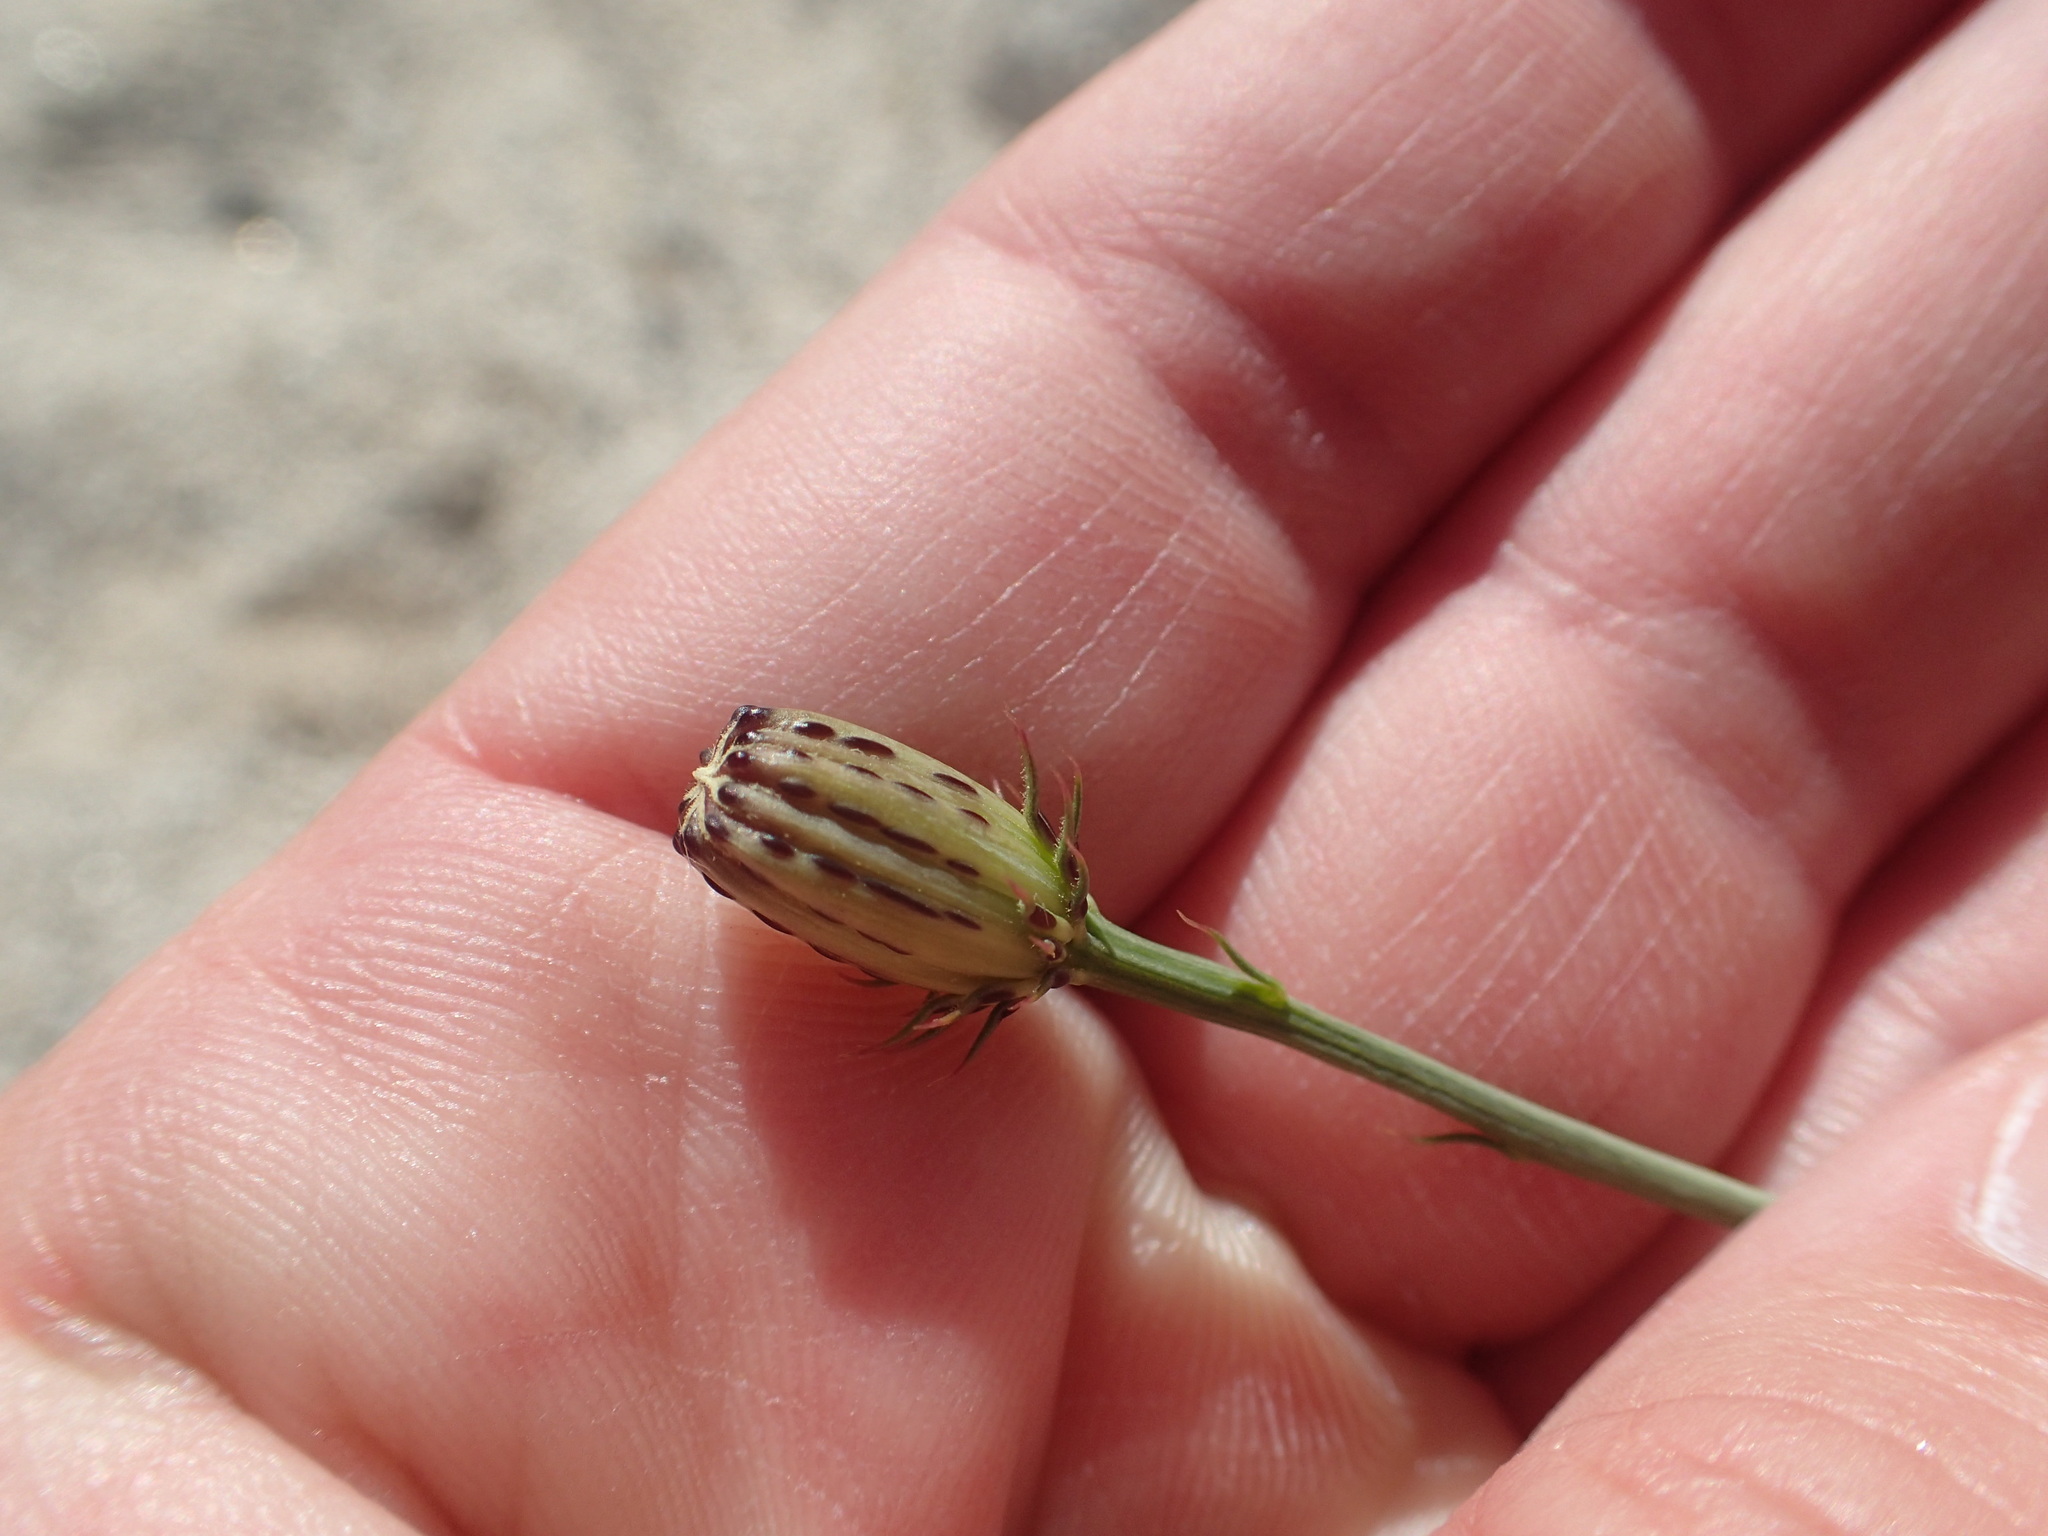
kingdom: Plantae
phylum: Tracheophyta
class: Magnoliopsida
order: Asterales
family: Asteraceae
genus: Adenophyllum
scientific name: Adenophyllum porophylloides
